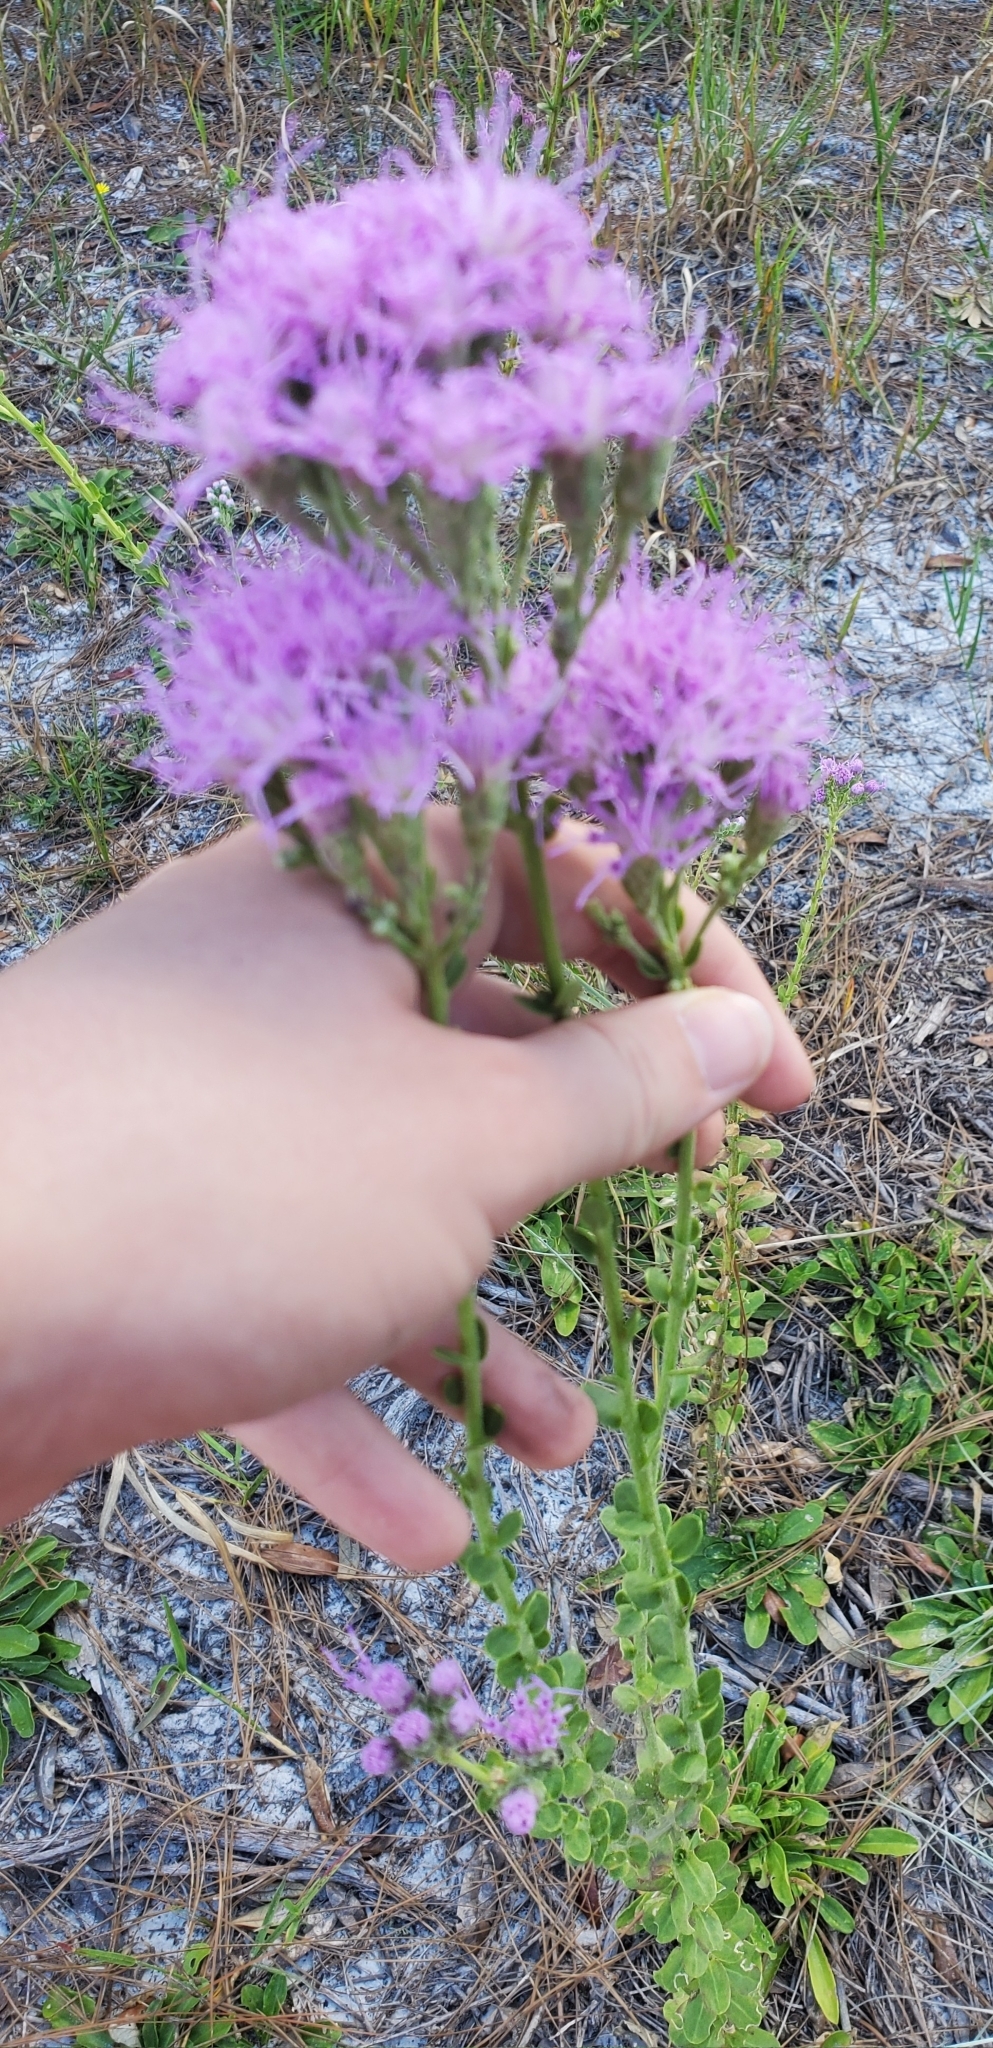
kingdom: Plantae
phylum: Tracheophyta
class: Magnoliopsida
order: Asterales
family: Asteraceae
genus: Carphephorus
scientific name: Carphephorus corymbosus
